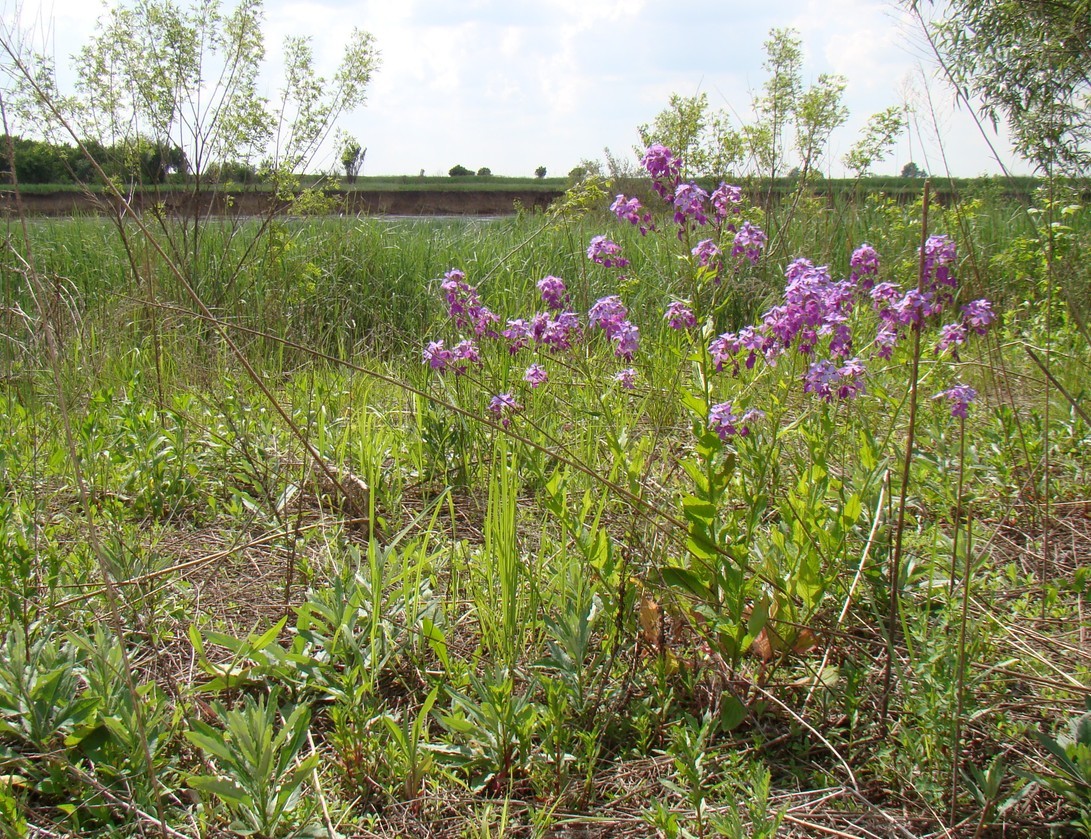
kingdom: Plantae
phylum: Tracheophyta
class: Magnoliopsida
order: Brassicales
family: Brassicaceae
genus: Hesperis
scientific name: Hesperis matronalis
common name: Dame's-violet
